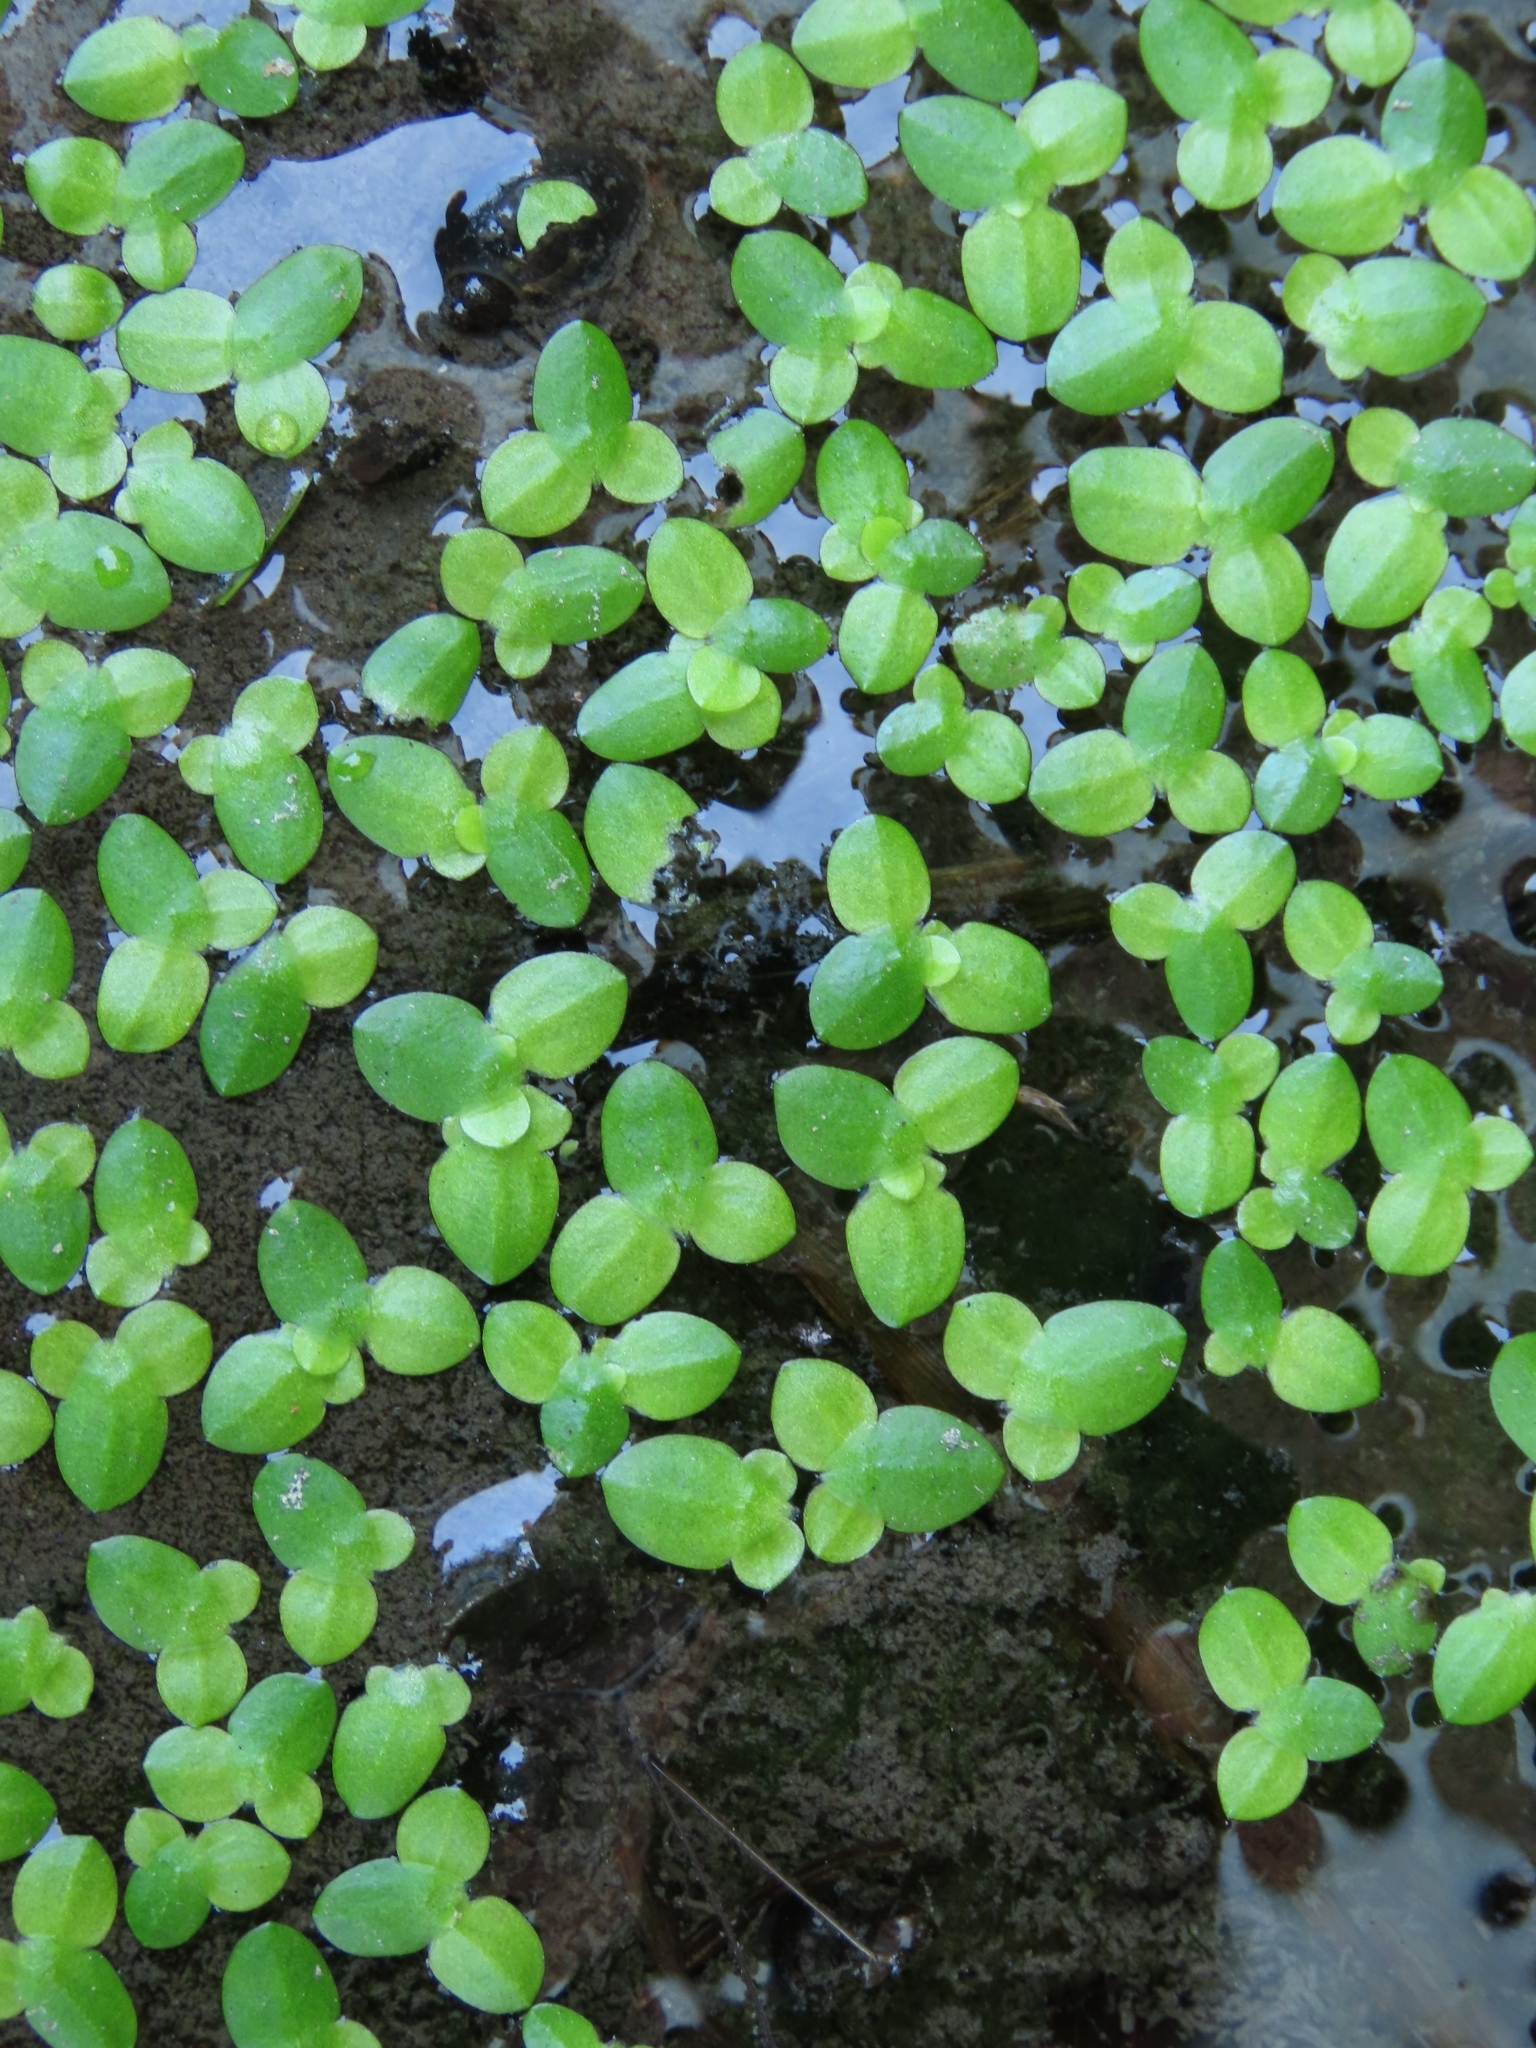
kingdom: Plantae
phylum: Tracheophyta
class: Liliopsida
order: Alismatales
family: Araceae
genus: Lemna
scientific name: Lemna aequinoctialis
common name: Duckweed
